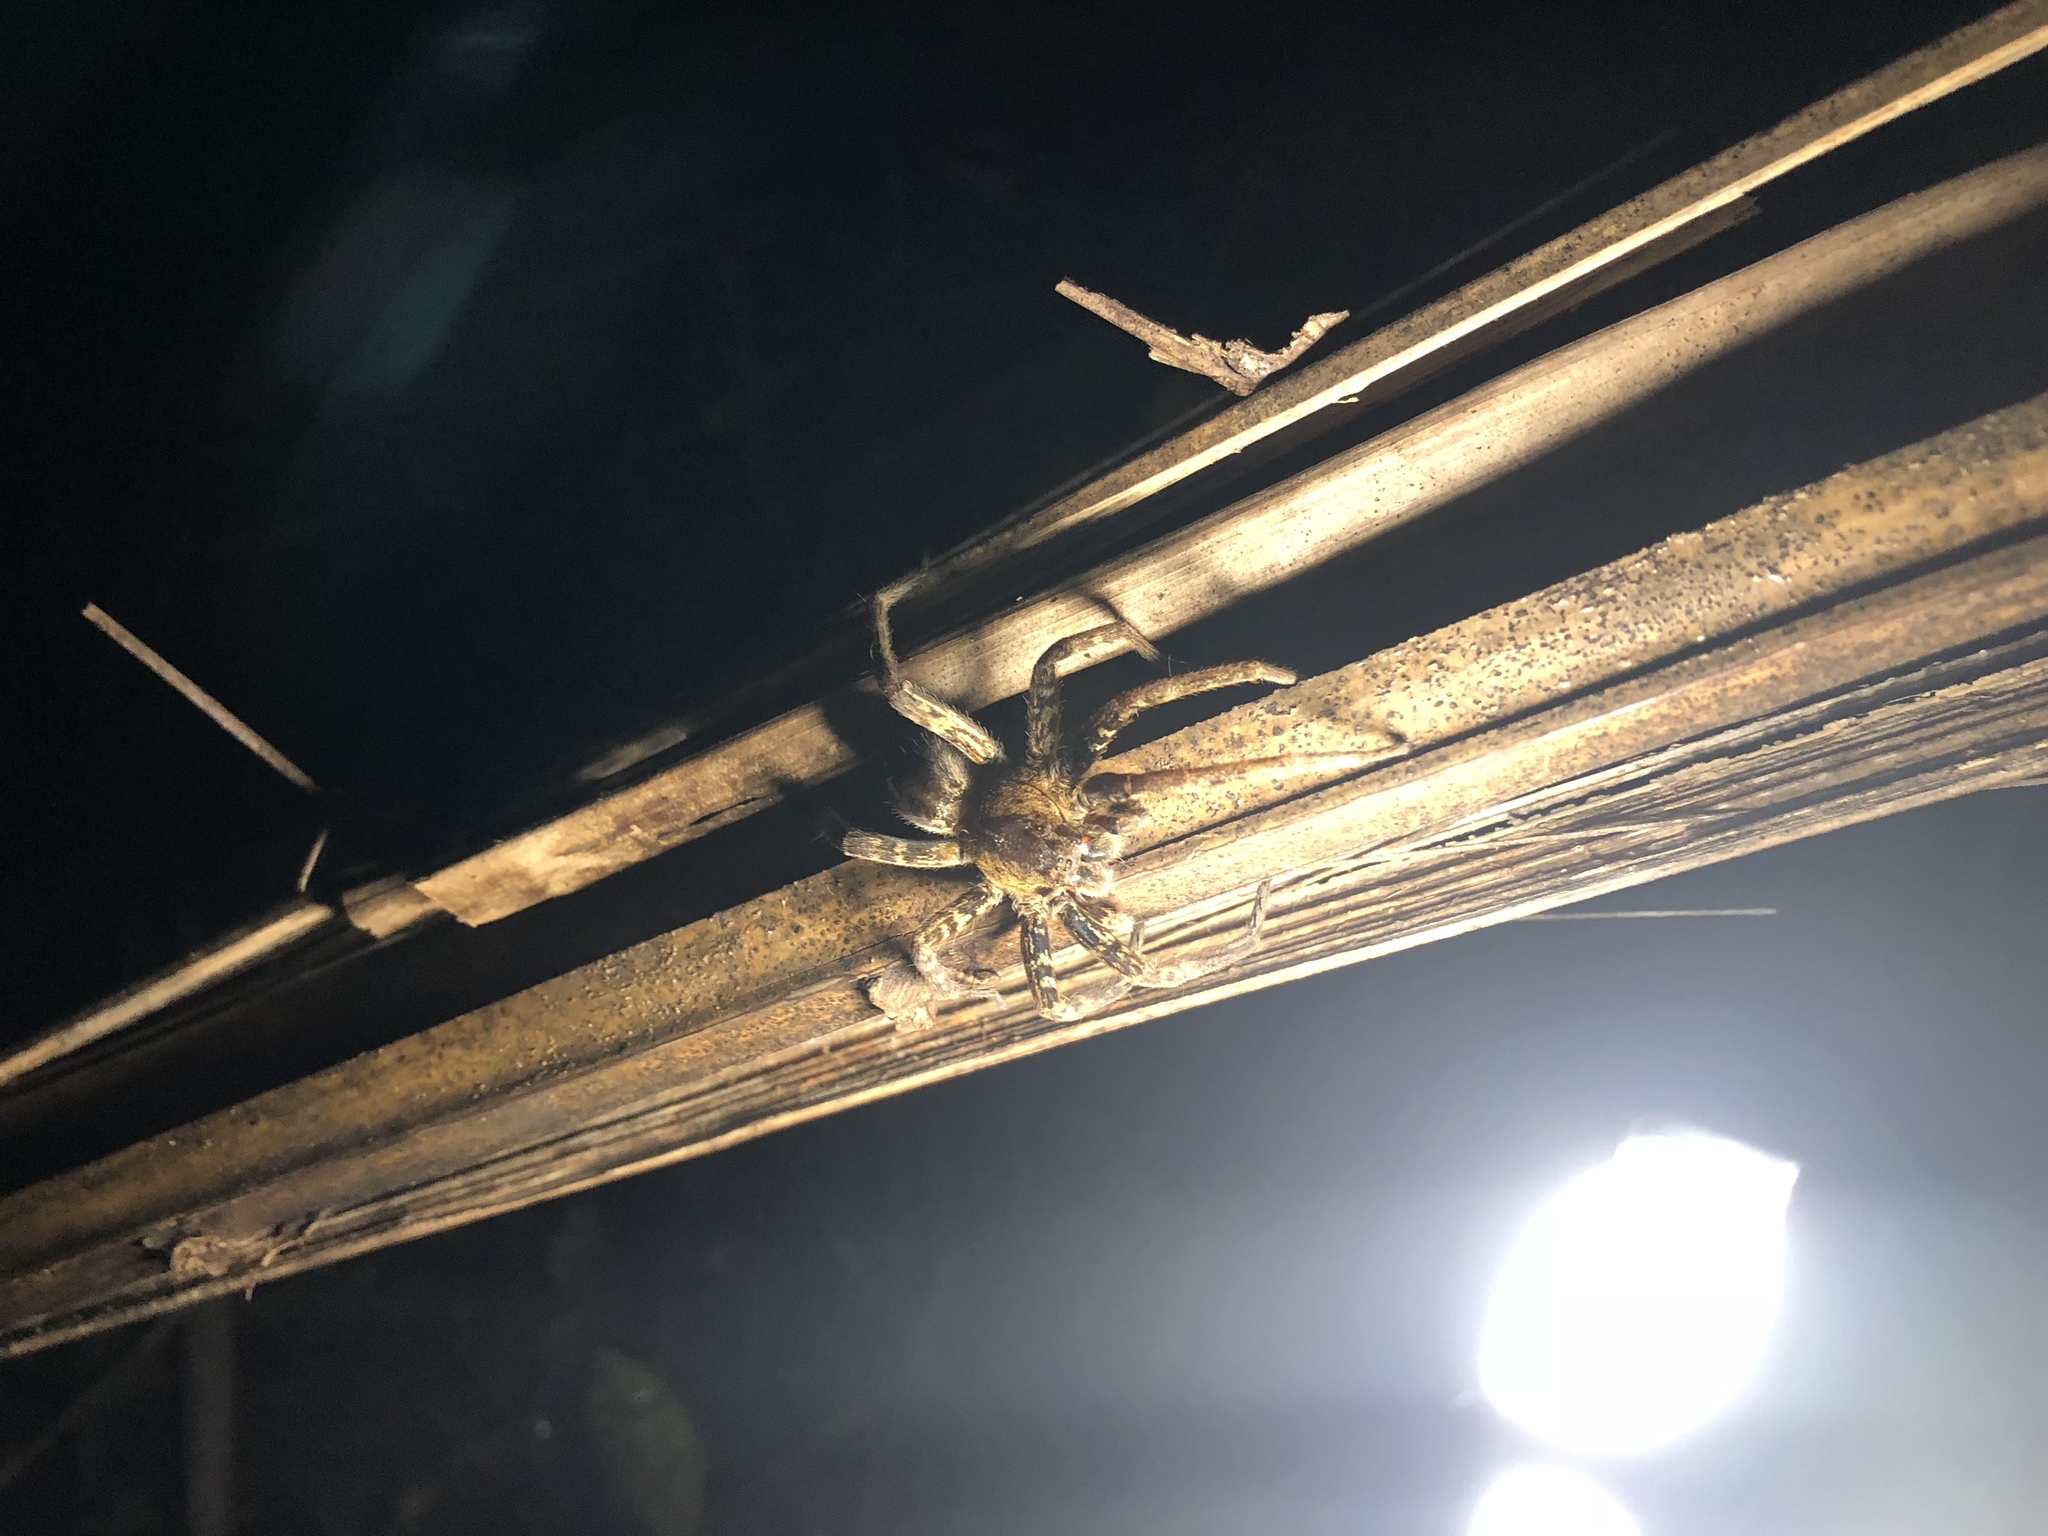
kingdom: Animalia
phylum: Arthropoda
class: Arachnida
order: Araneae
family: Ctenidae
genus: Ancylometes
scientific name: Ancylometes bogotensis
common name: Wandering spiders
